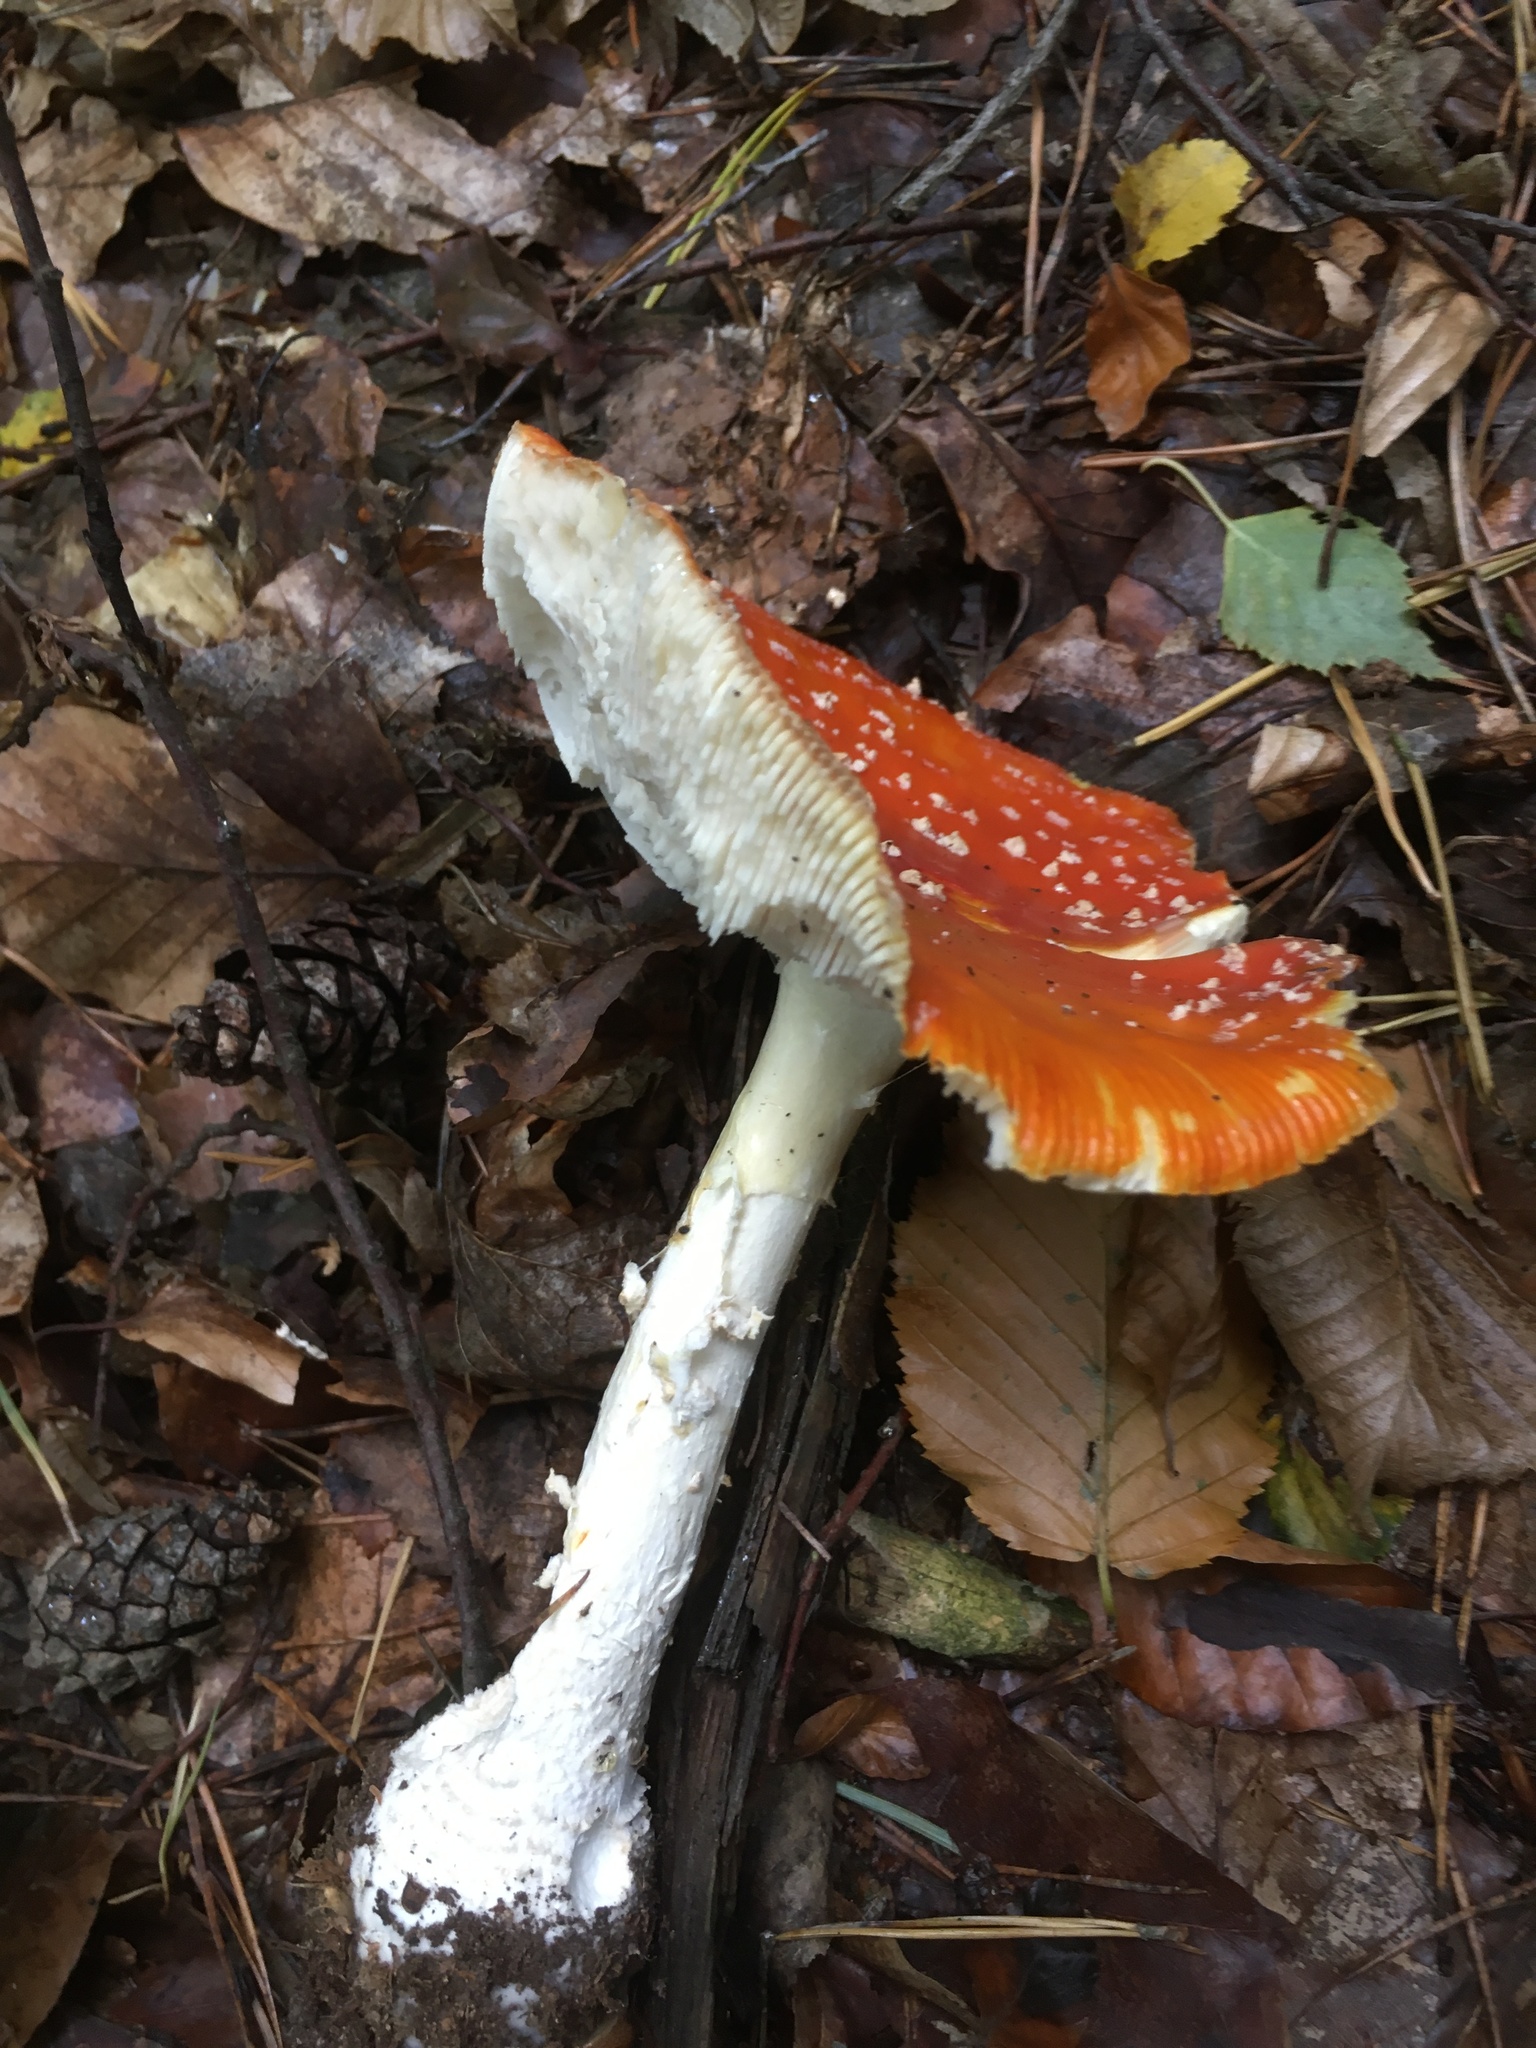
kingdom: Fungi
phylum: Basidiomycota
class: Agaricomycetes
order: Agaricales
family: Amanitaceae
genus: Amanita
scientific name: Amanita muscaria
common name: Fly agaric
